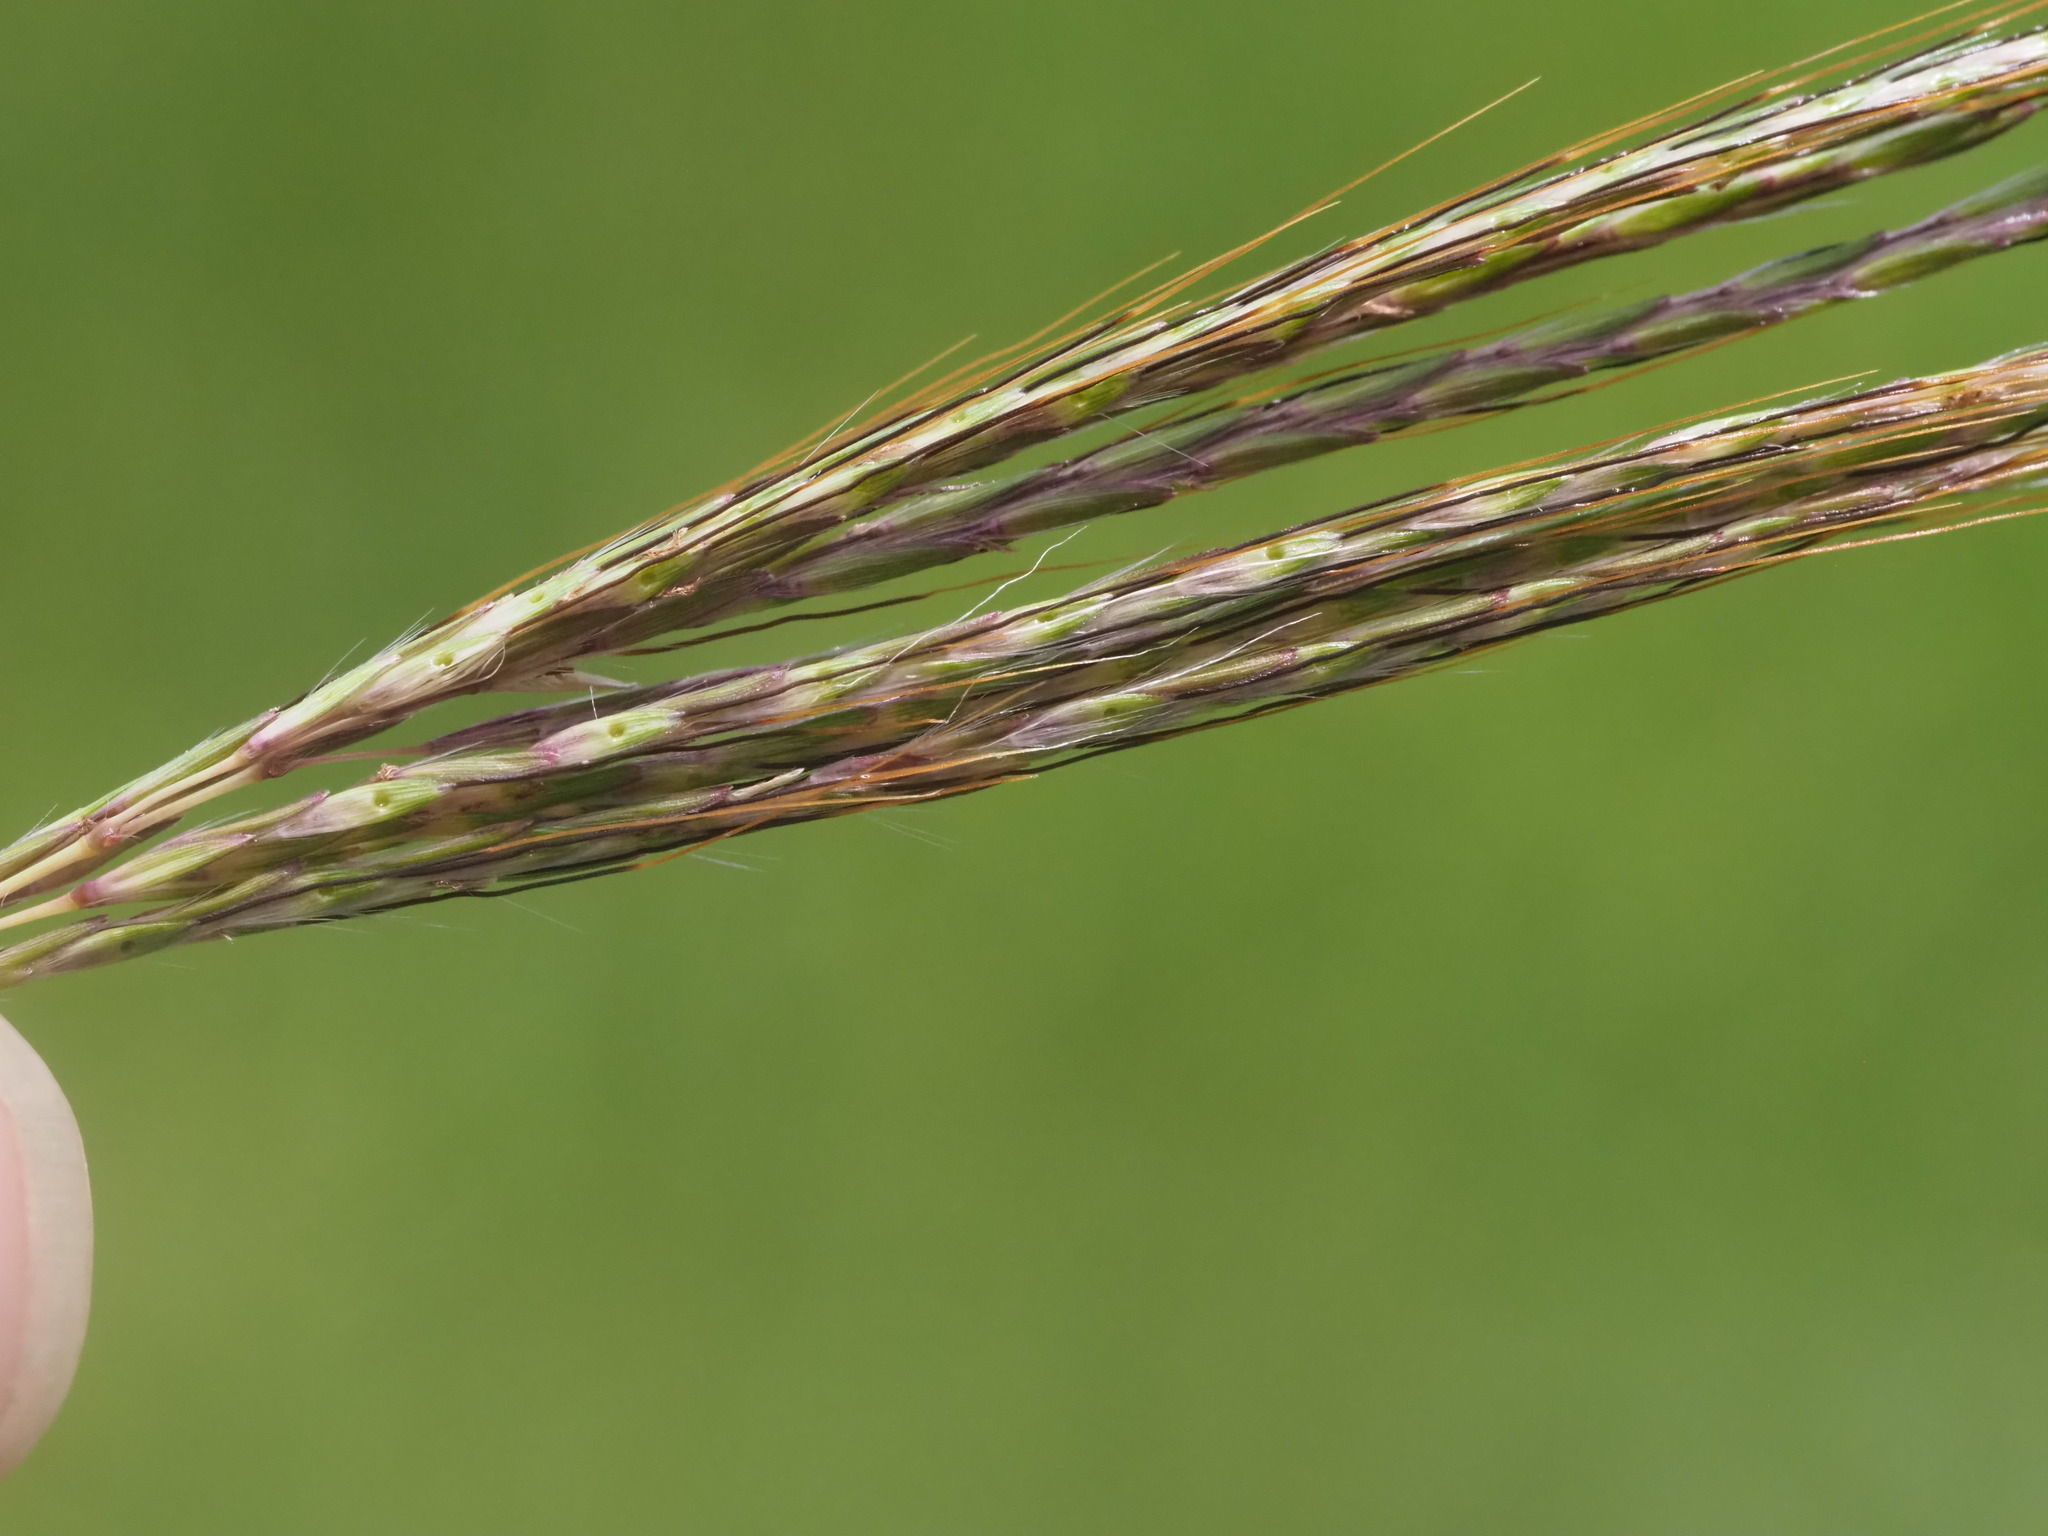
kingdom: Plantae
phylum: Tracheophyta
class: Liliopsida
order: Poales
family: Poaceae
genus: Bothriochloa
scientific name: Bothriochloa pertusa
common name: Pitted beardgrass
